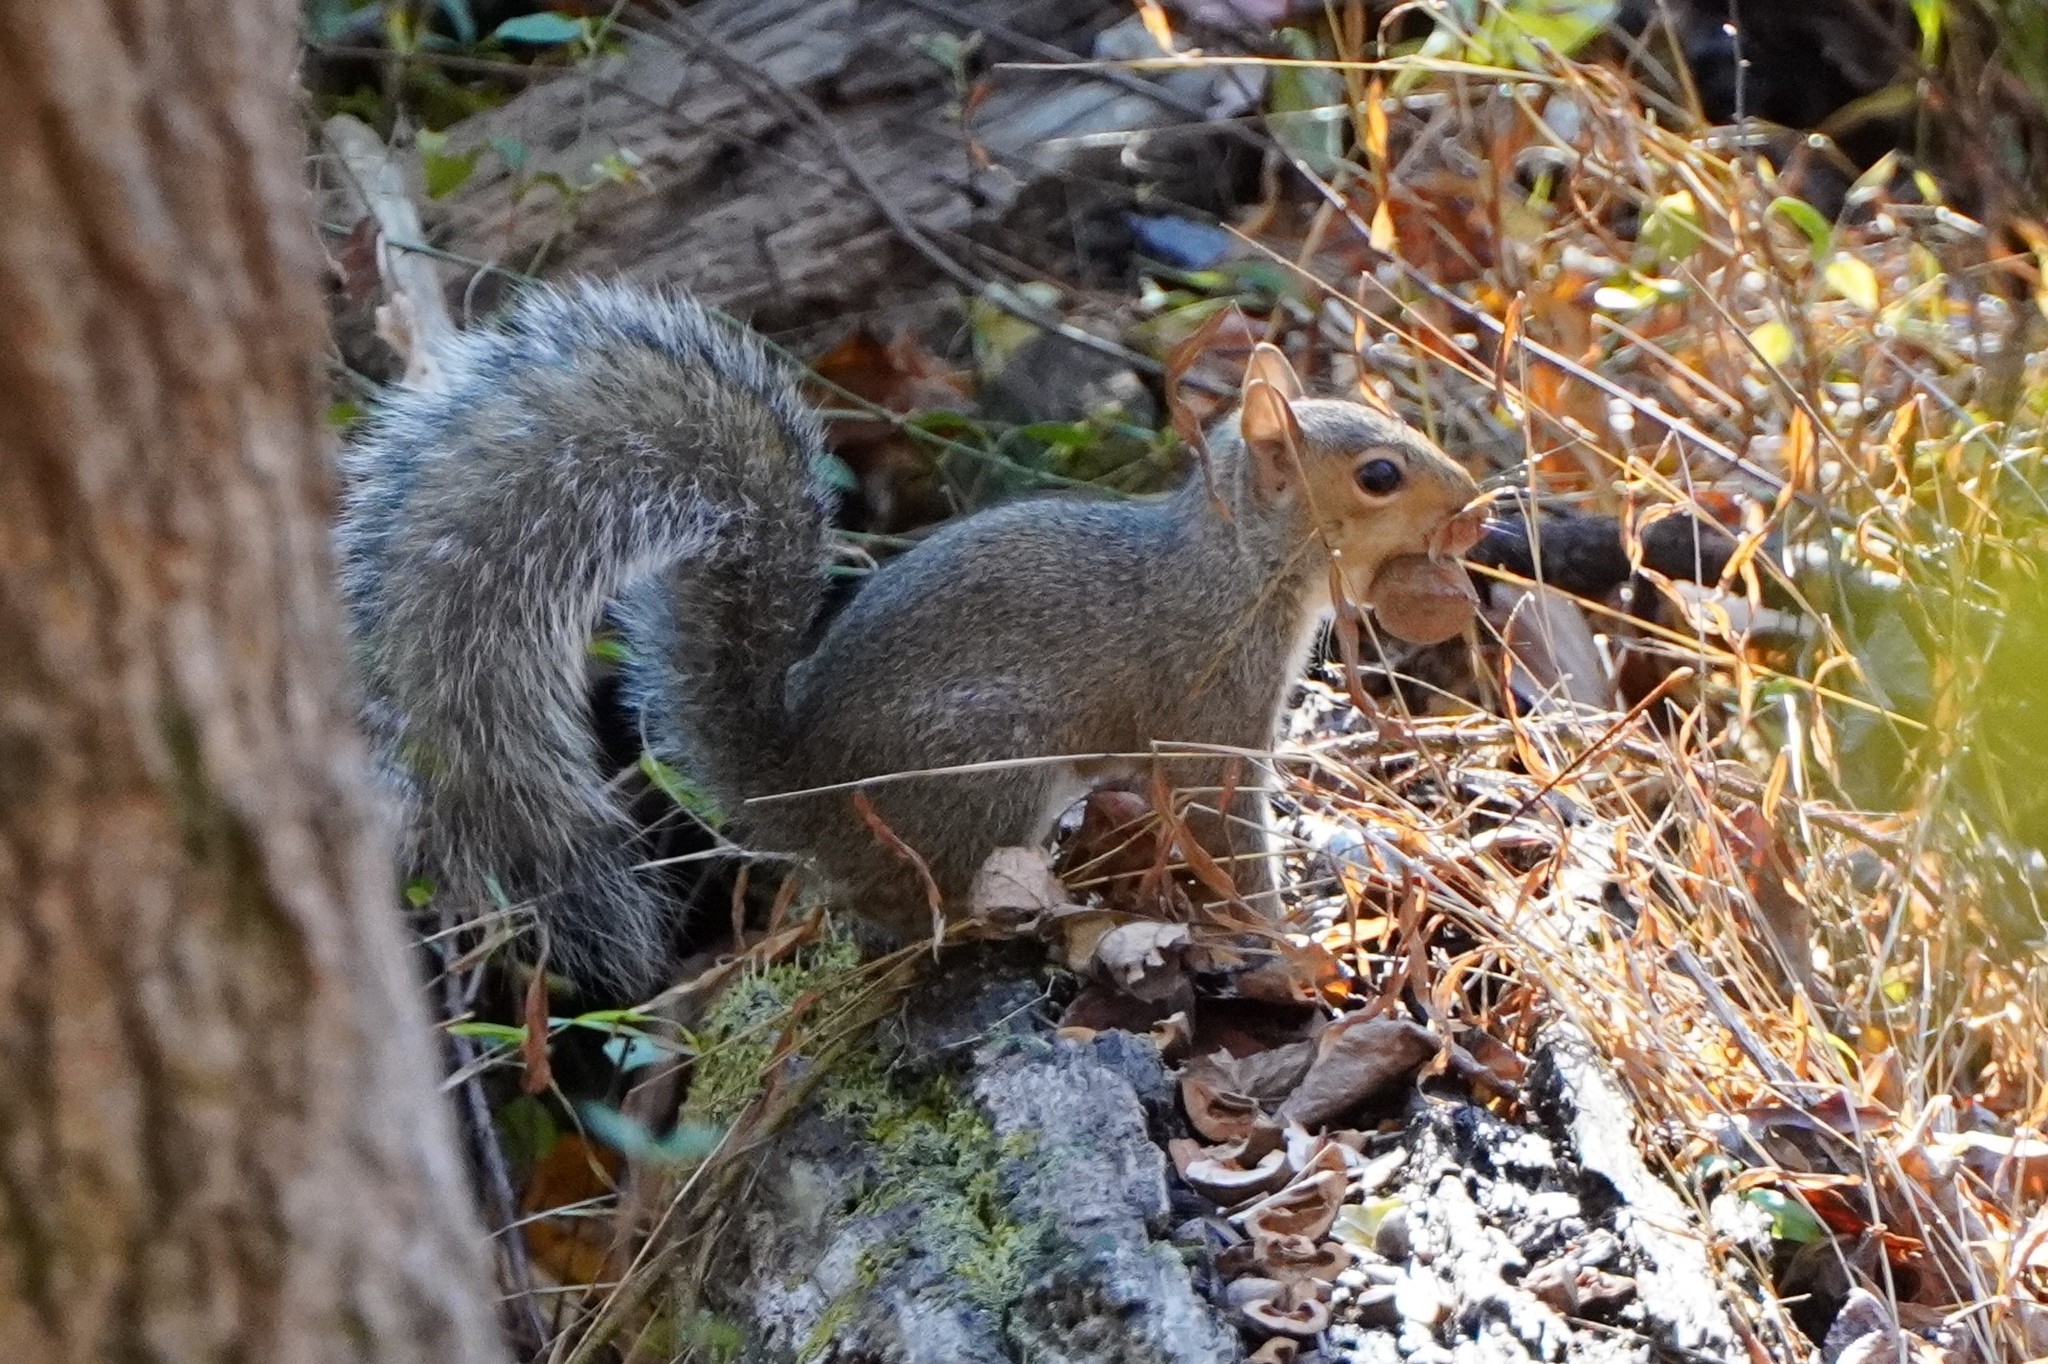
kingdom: Animalia
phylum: Chordata
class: Mammalia
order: Rodentia
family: Sciuridae
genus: Sciurus
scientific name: Sciurus carolinensis
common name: Eastern gray squirrel
